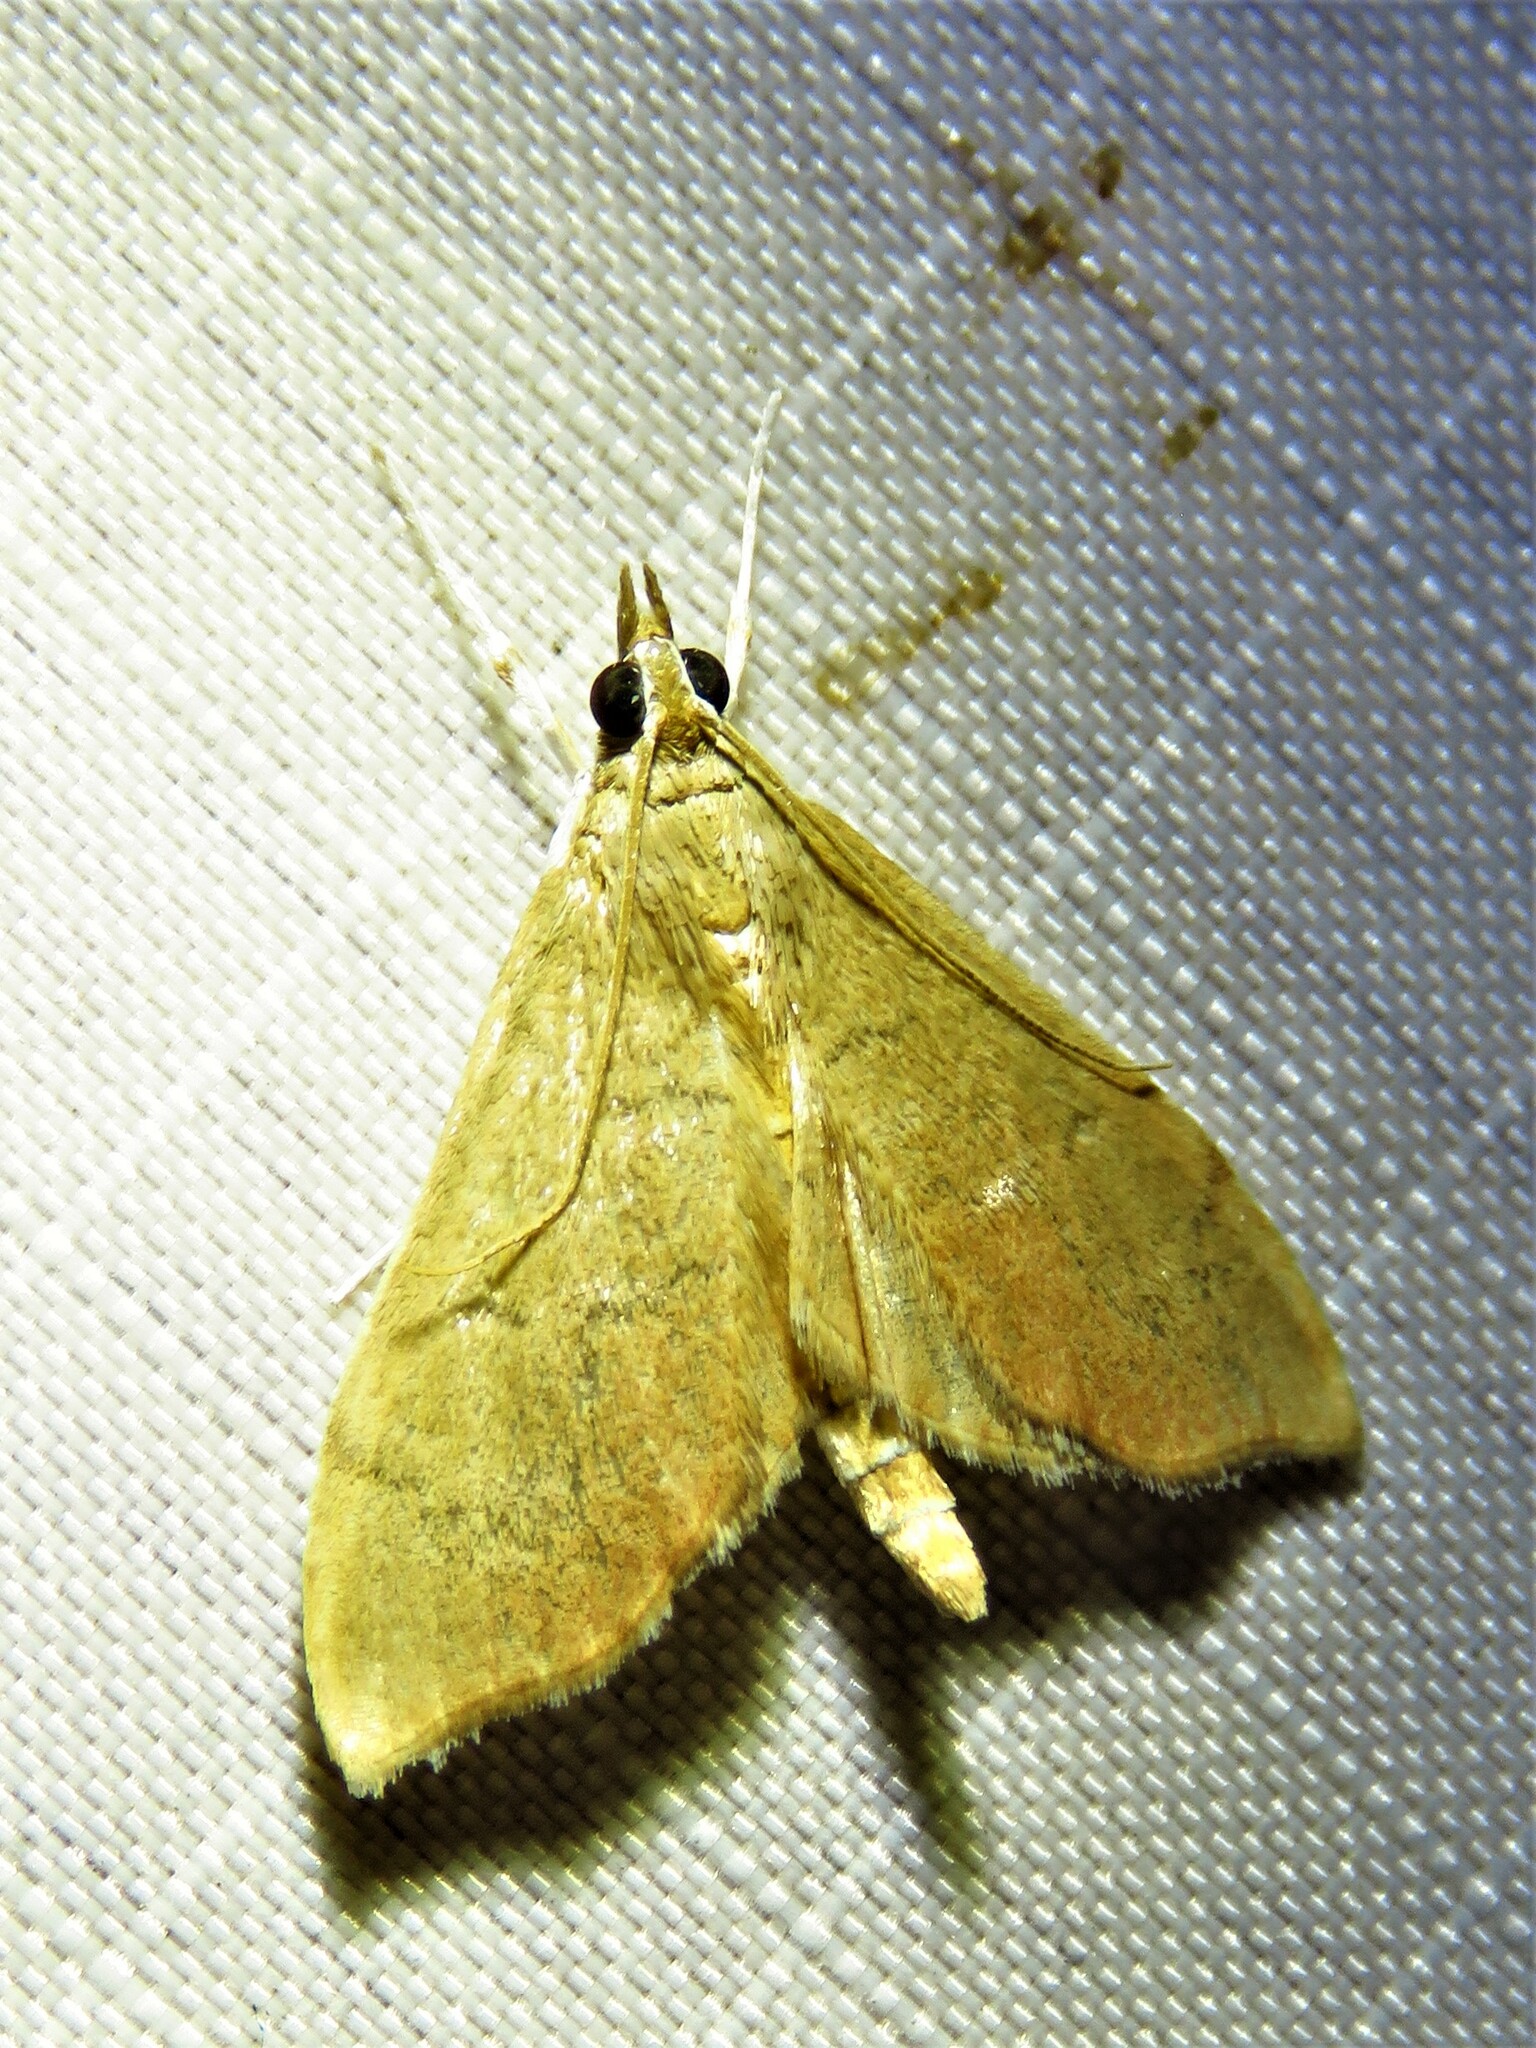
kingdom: Animalia
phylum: Arthropoda
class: Insecta
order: Lepidoptera
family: Crambidae
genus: Sericoplaga
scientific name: Sericoplaga externalis
